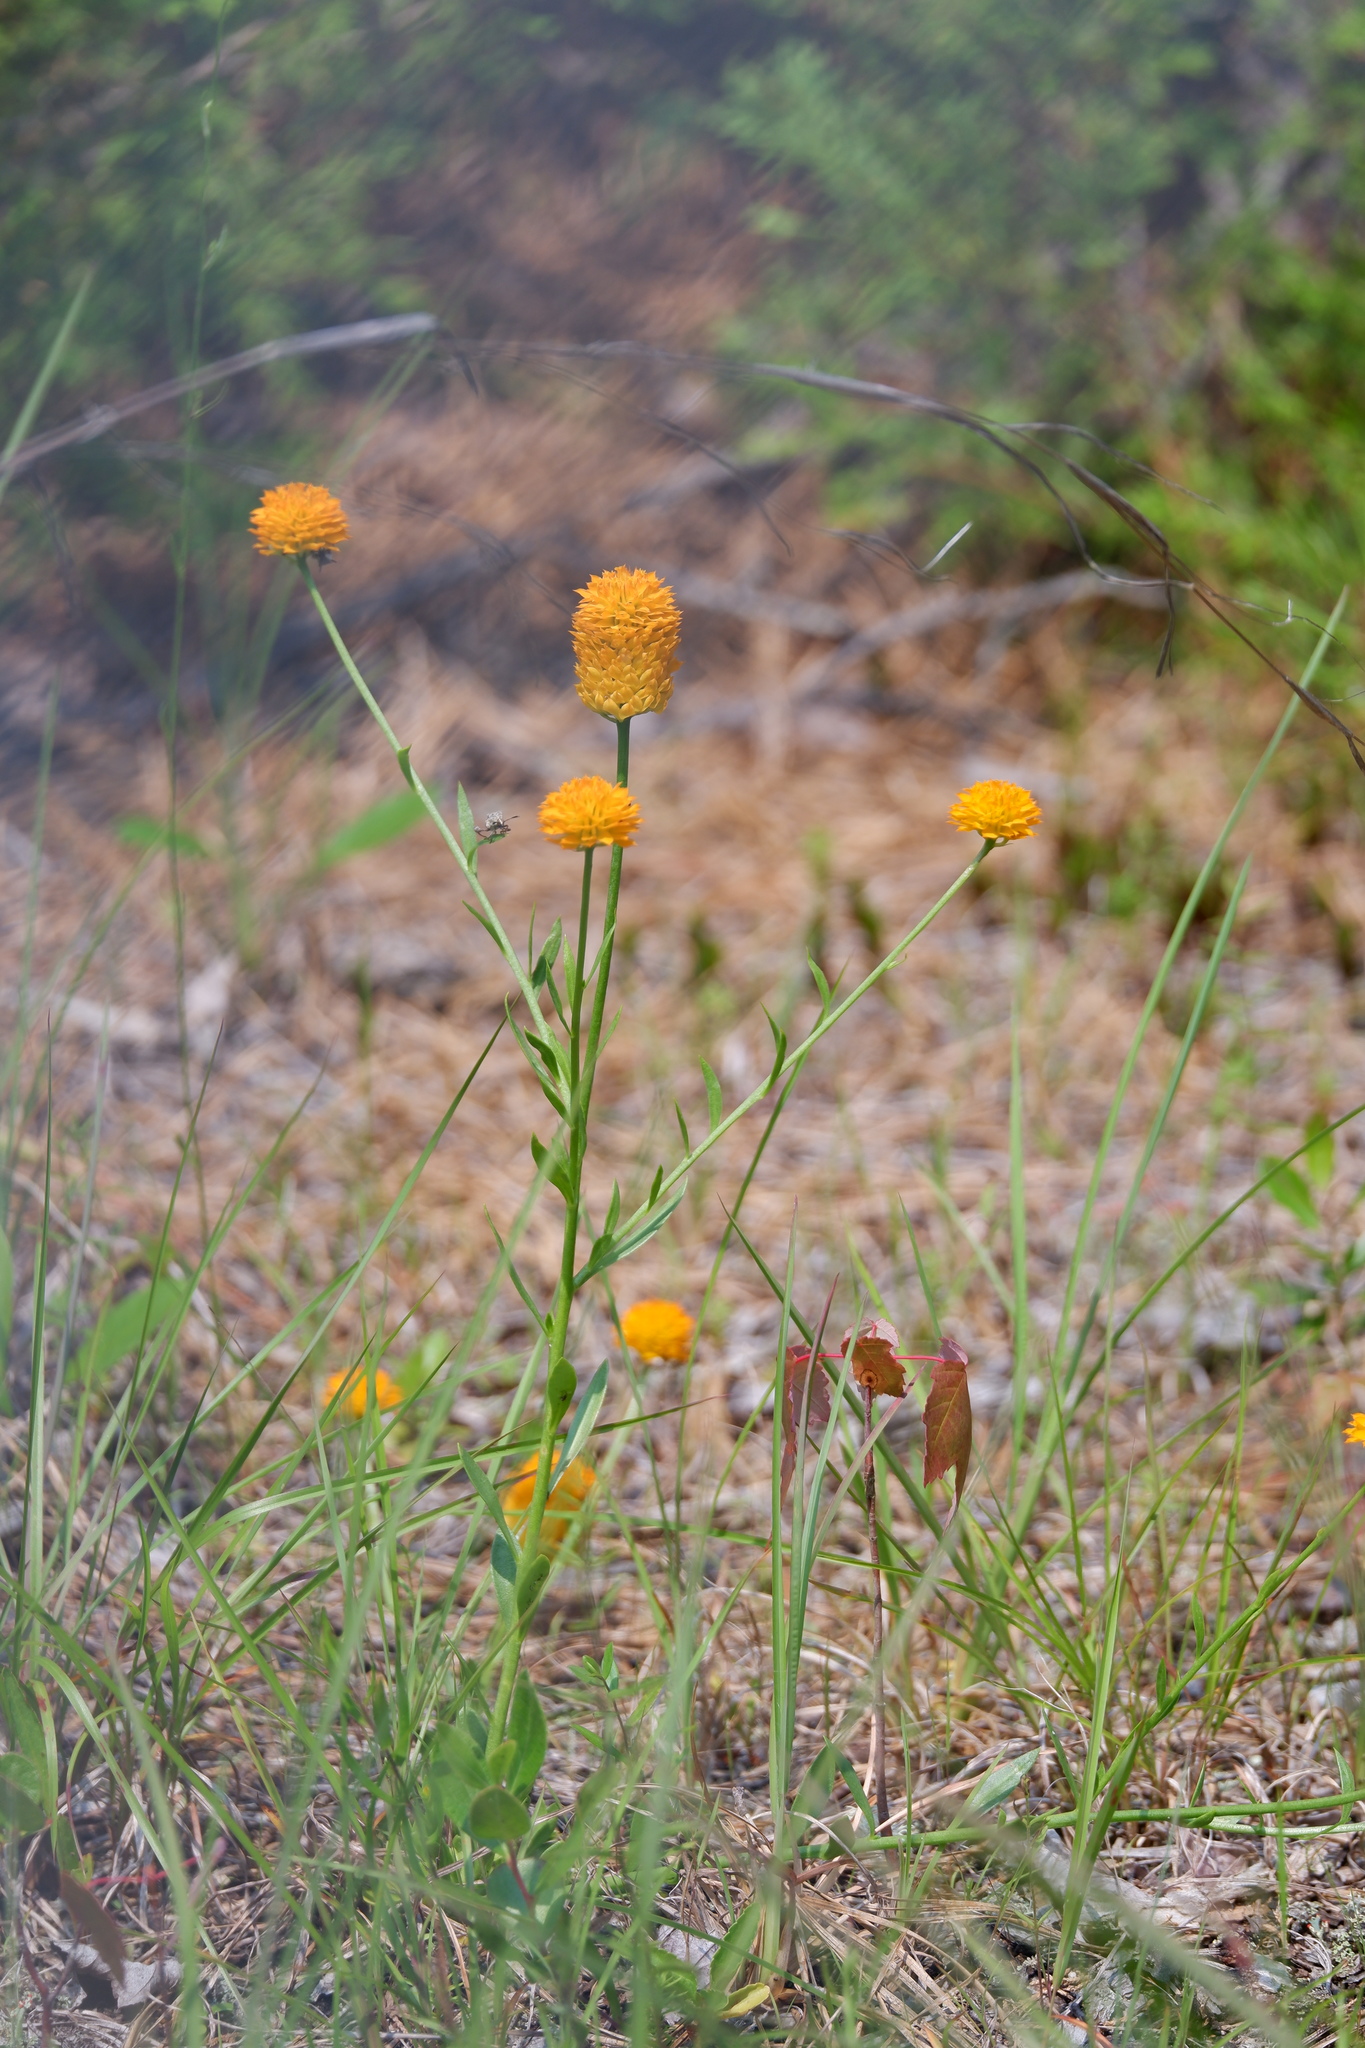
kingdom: Plantae
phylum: Tracheophyta
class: Magnoliopsida
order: Fabales
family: Polygalaceae
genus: Polygala
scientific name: Polygala lutea
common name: Orange milkwort
